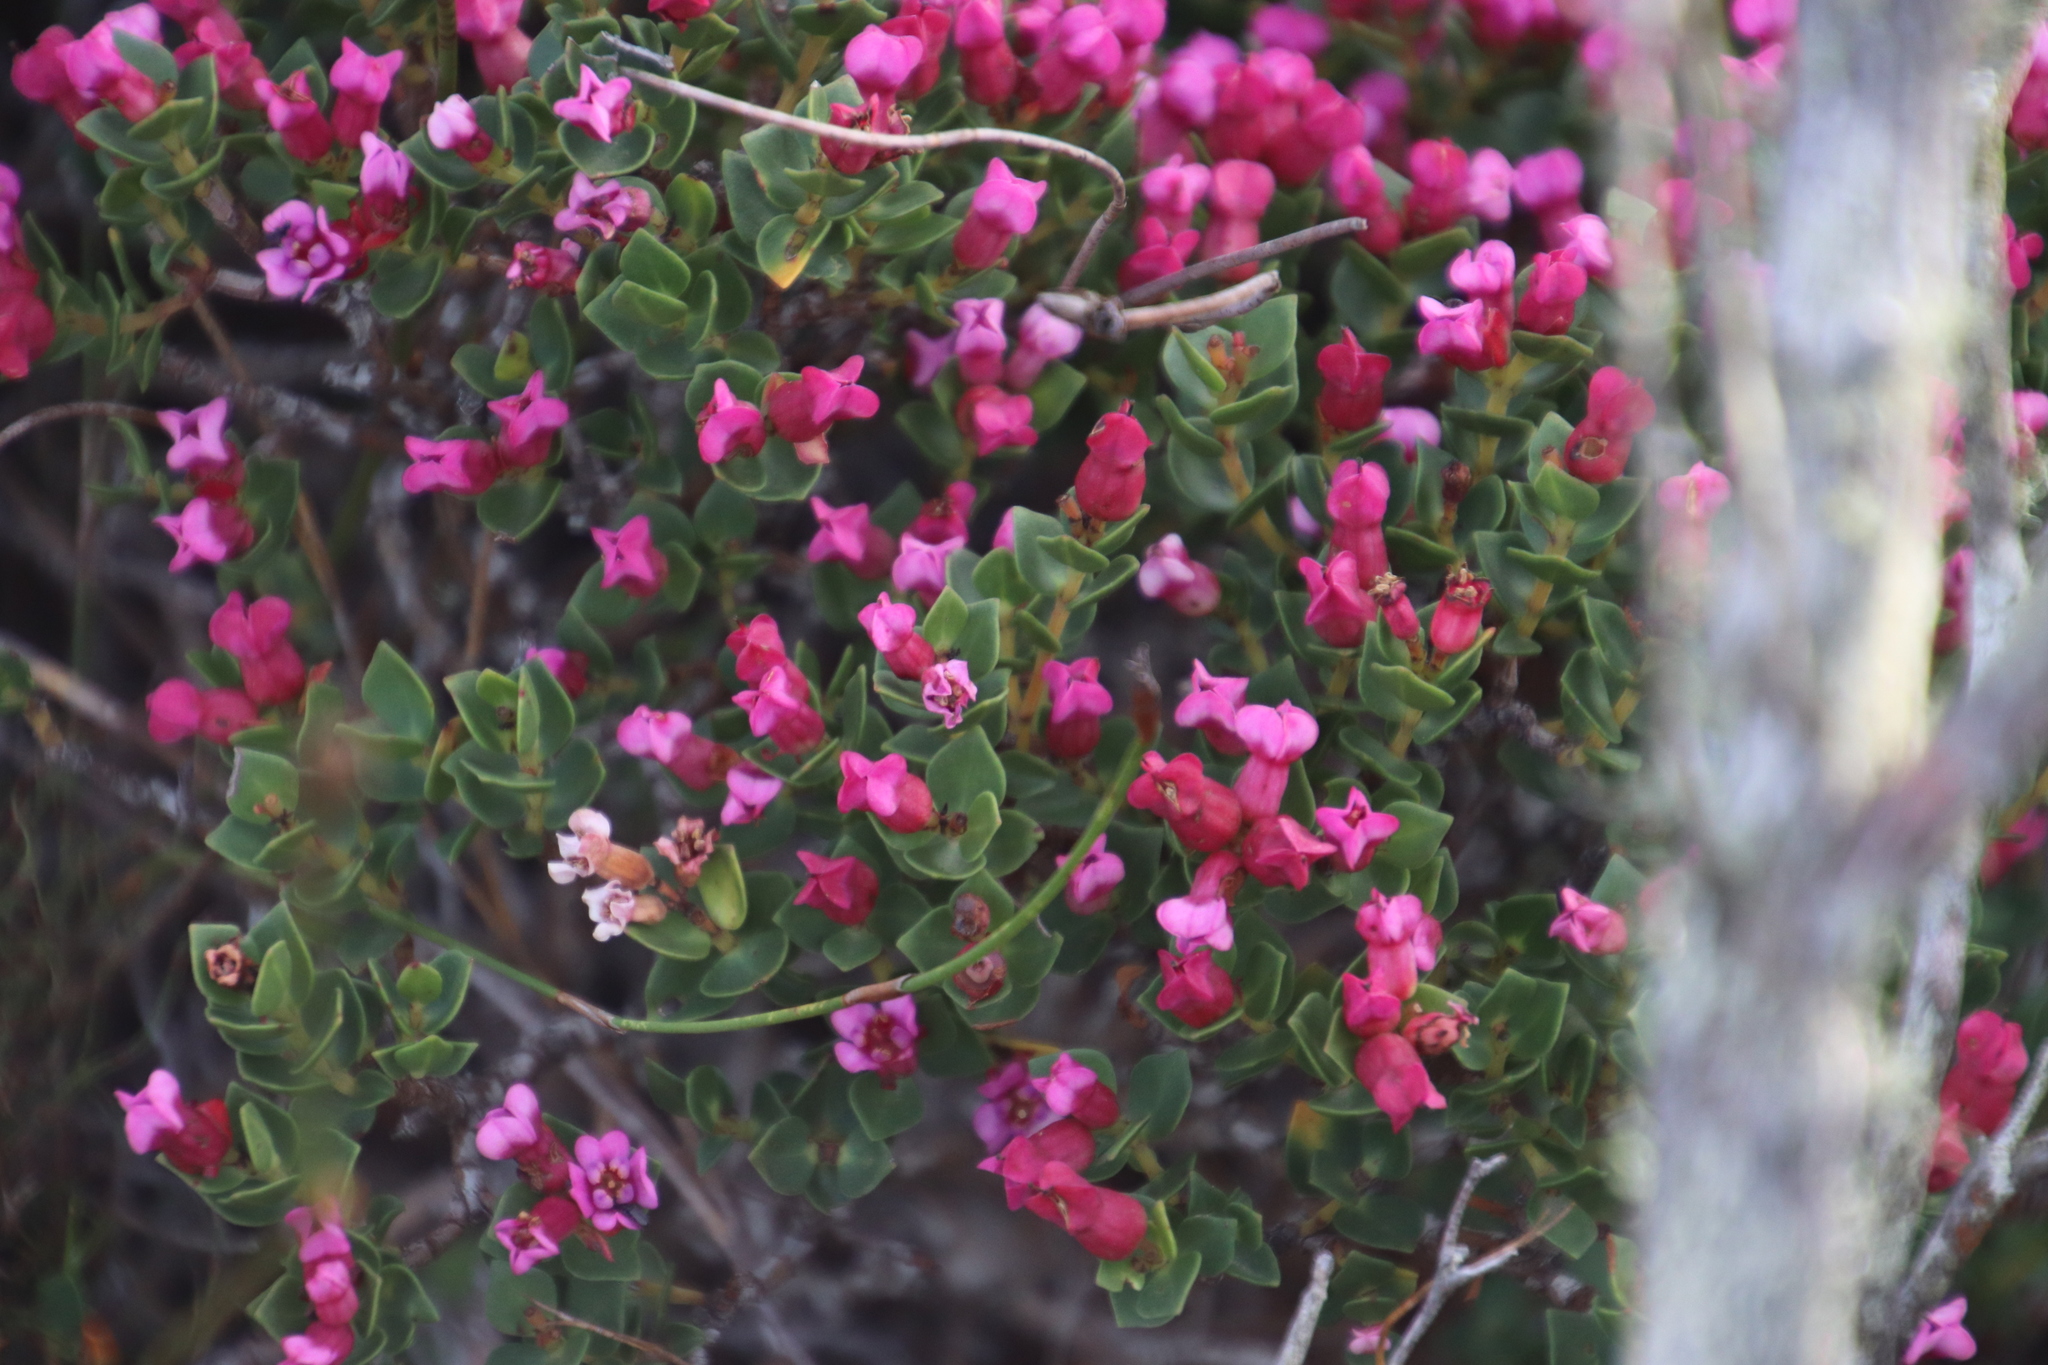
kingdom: Plantae
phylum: Tracheophyta
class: Magnoliopsida
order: Myrtales
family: Penaeaceae
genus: Brachysiphon
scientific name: Brachysiphon fucatus
